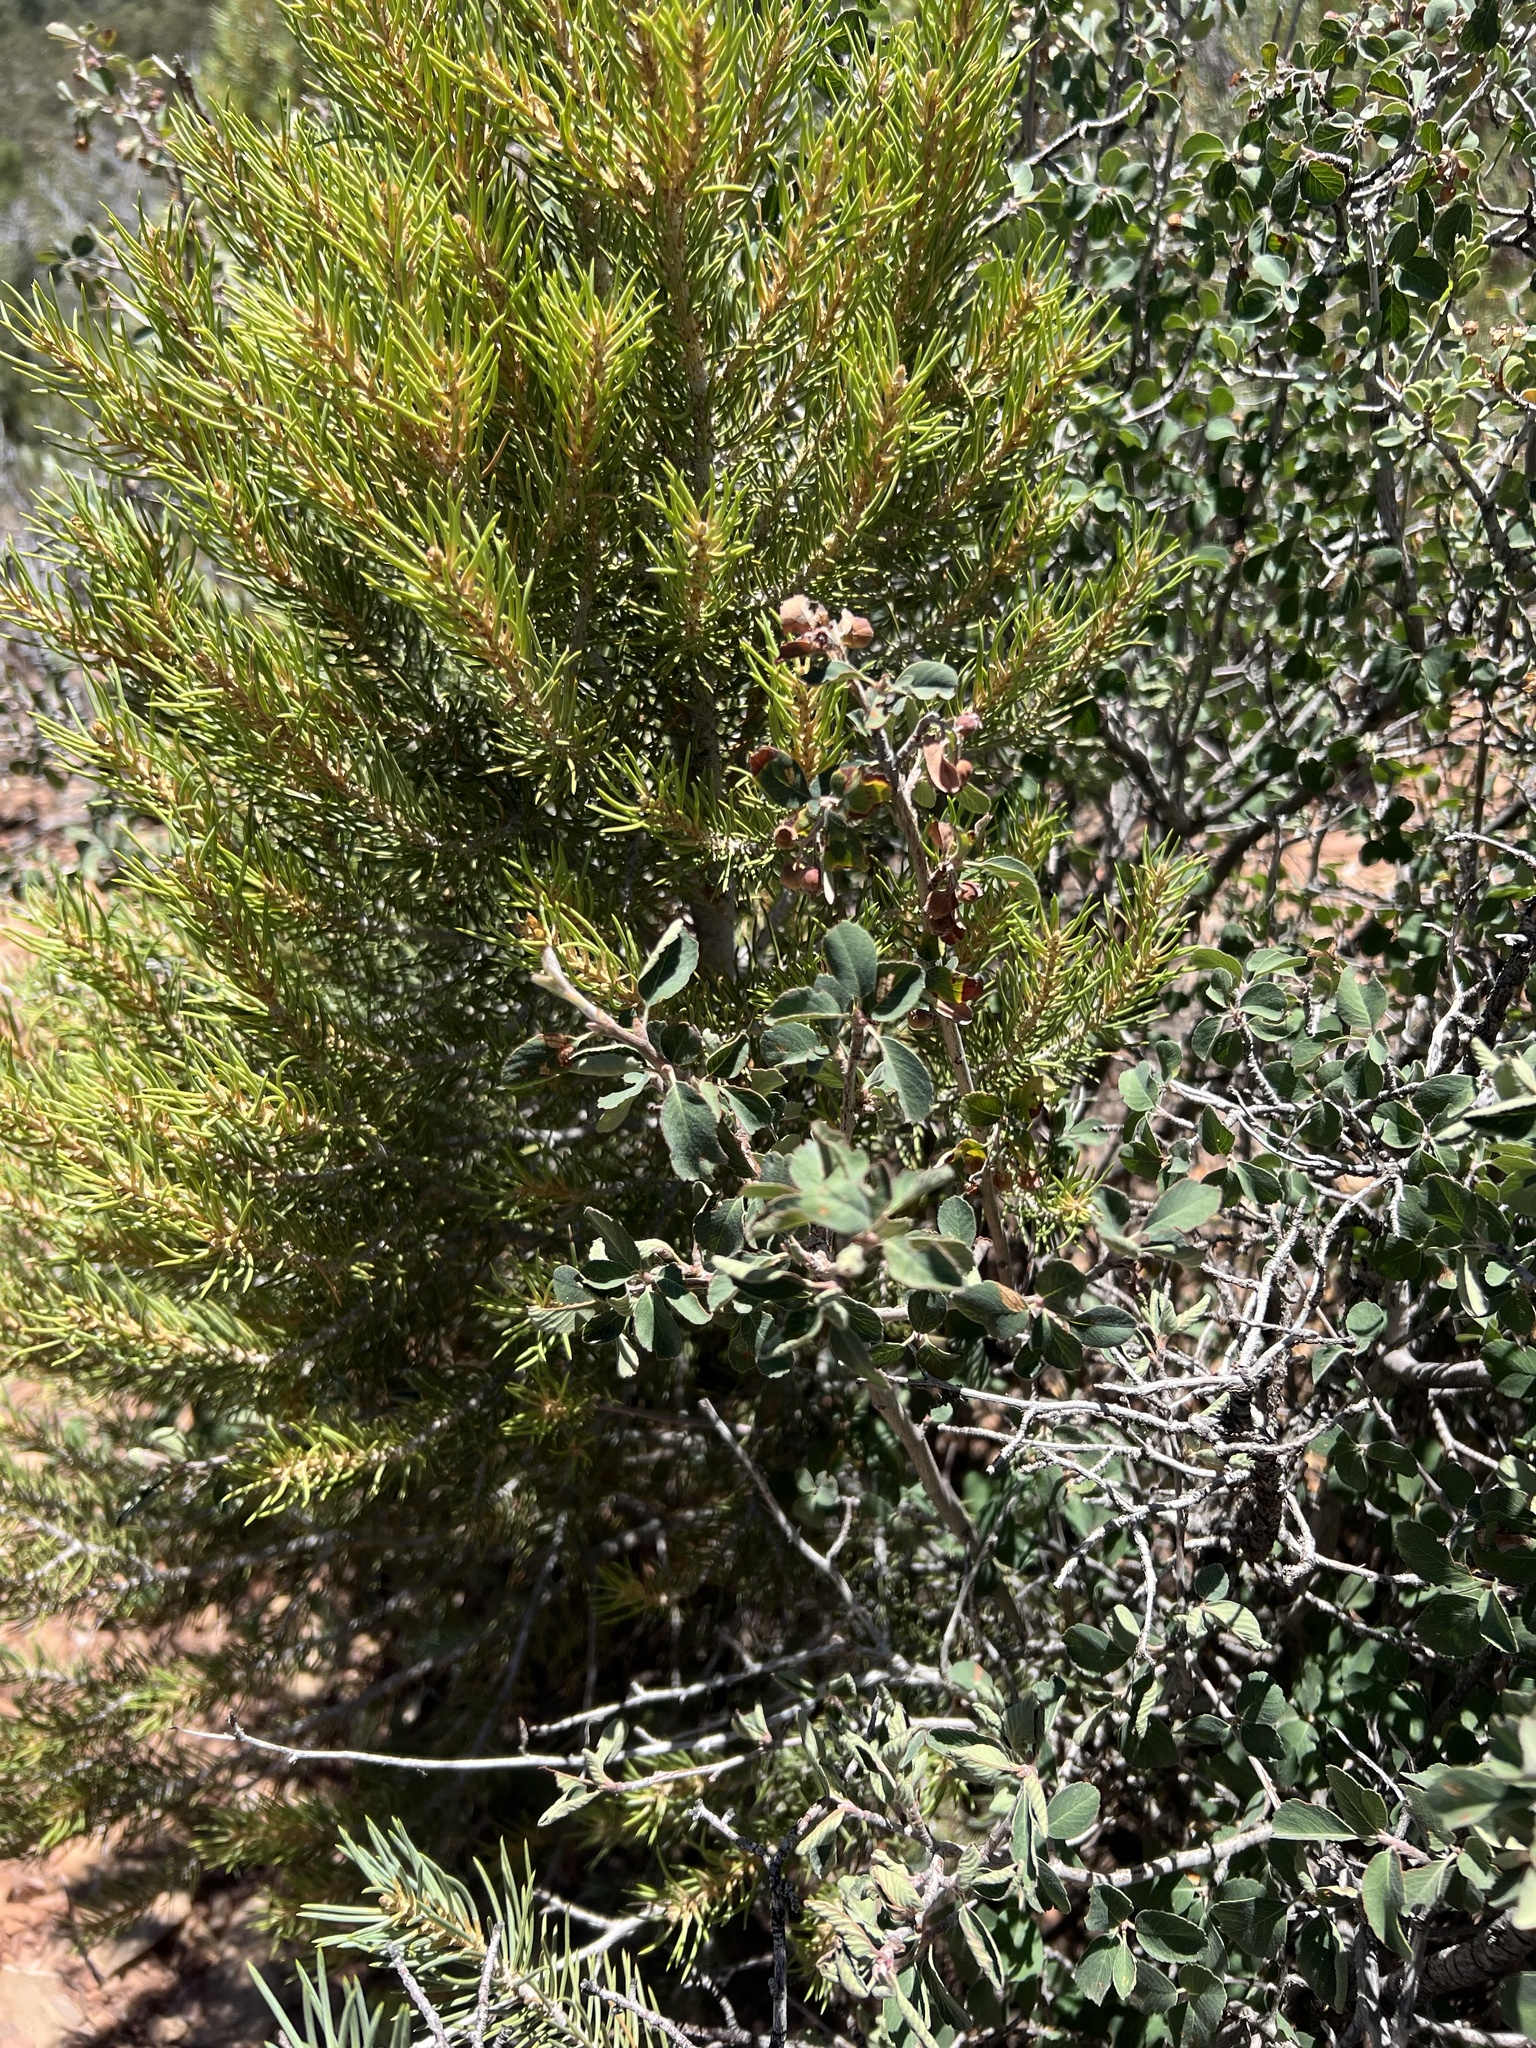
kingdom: Plantae
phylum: Tracheophyta
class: Magnoliopsida
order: Rosales
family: Rosaceae
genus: Amelanchier
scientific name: Amelanchier utahensis
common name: Utah serviceberry
